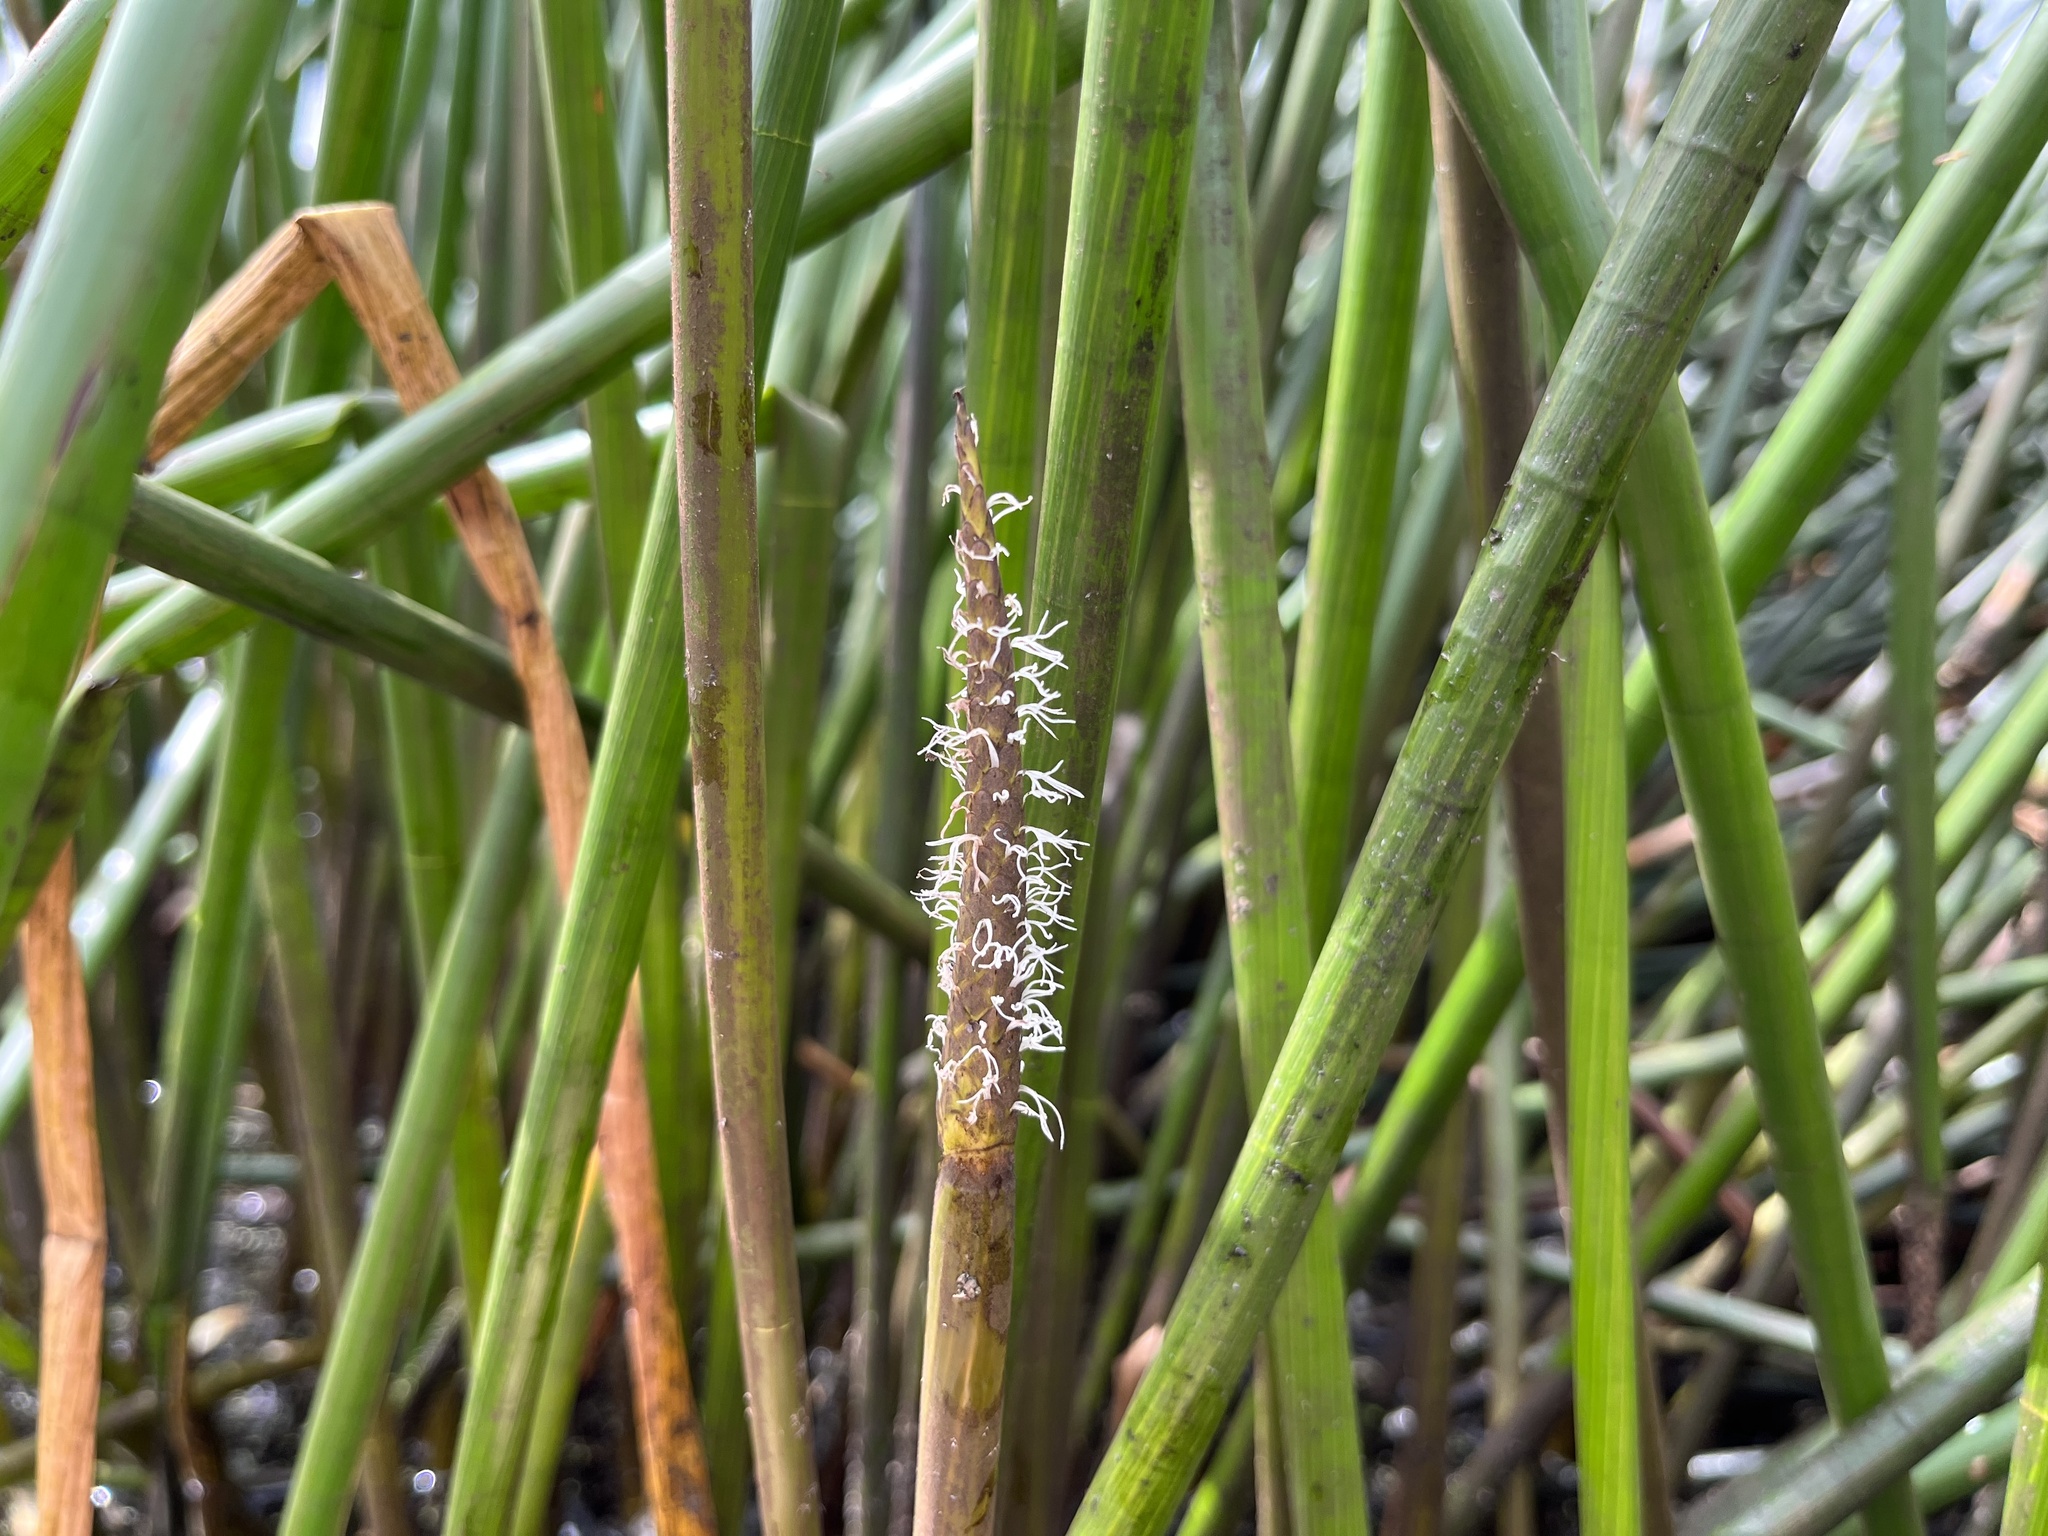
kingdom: Plantae
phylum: Tracheophyta
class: Liliopsida
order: Poales
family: Cyperaceae
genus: Eleocharis
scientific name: Eleocharis sphacelata
